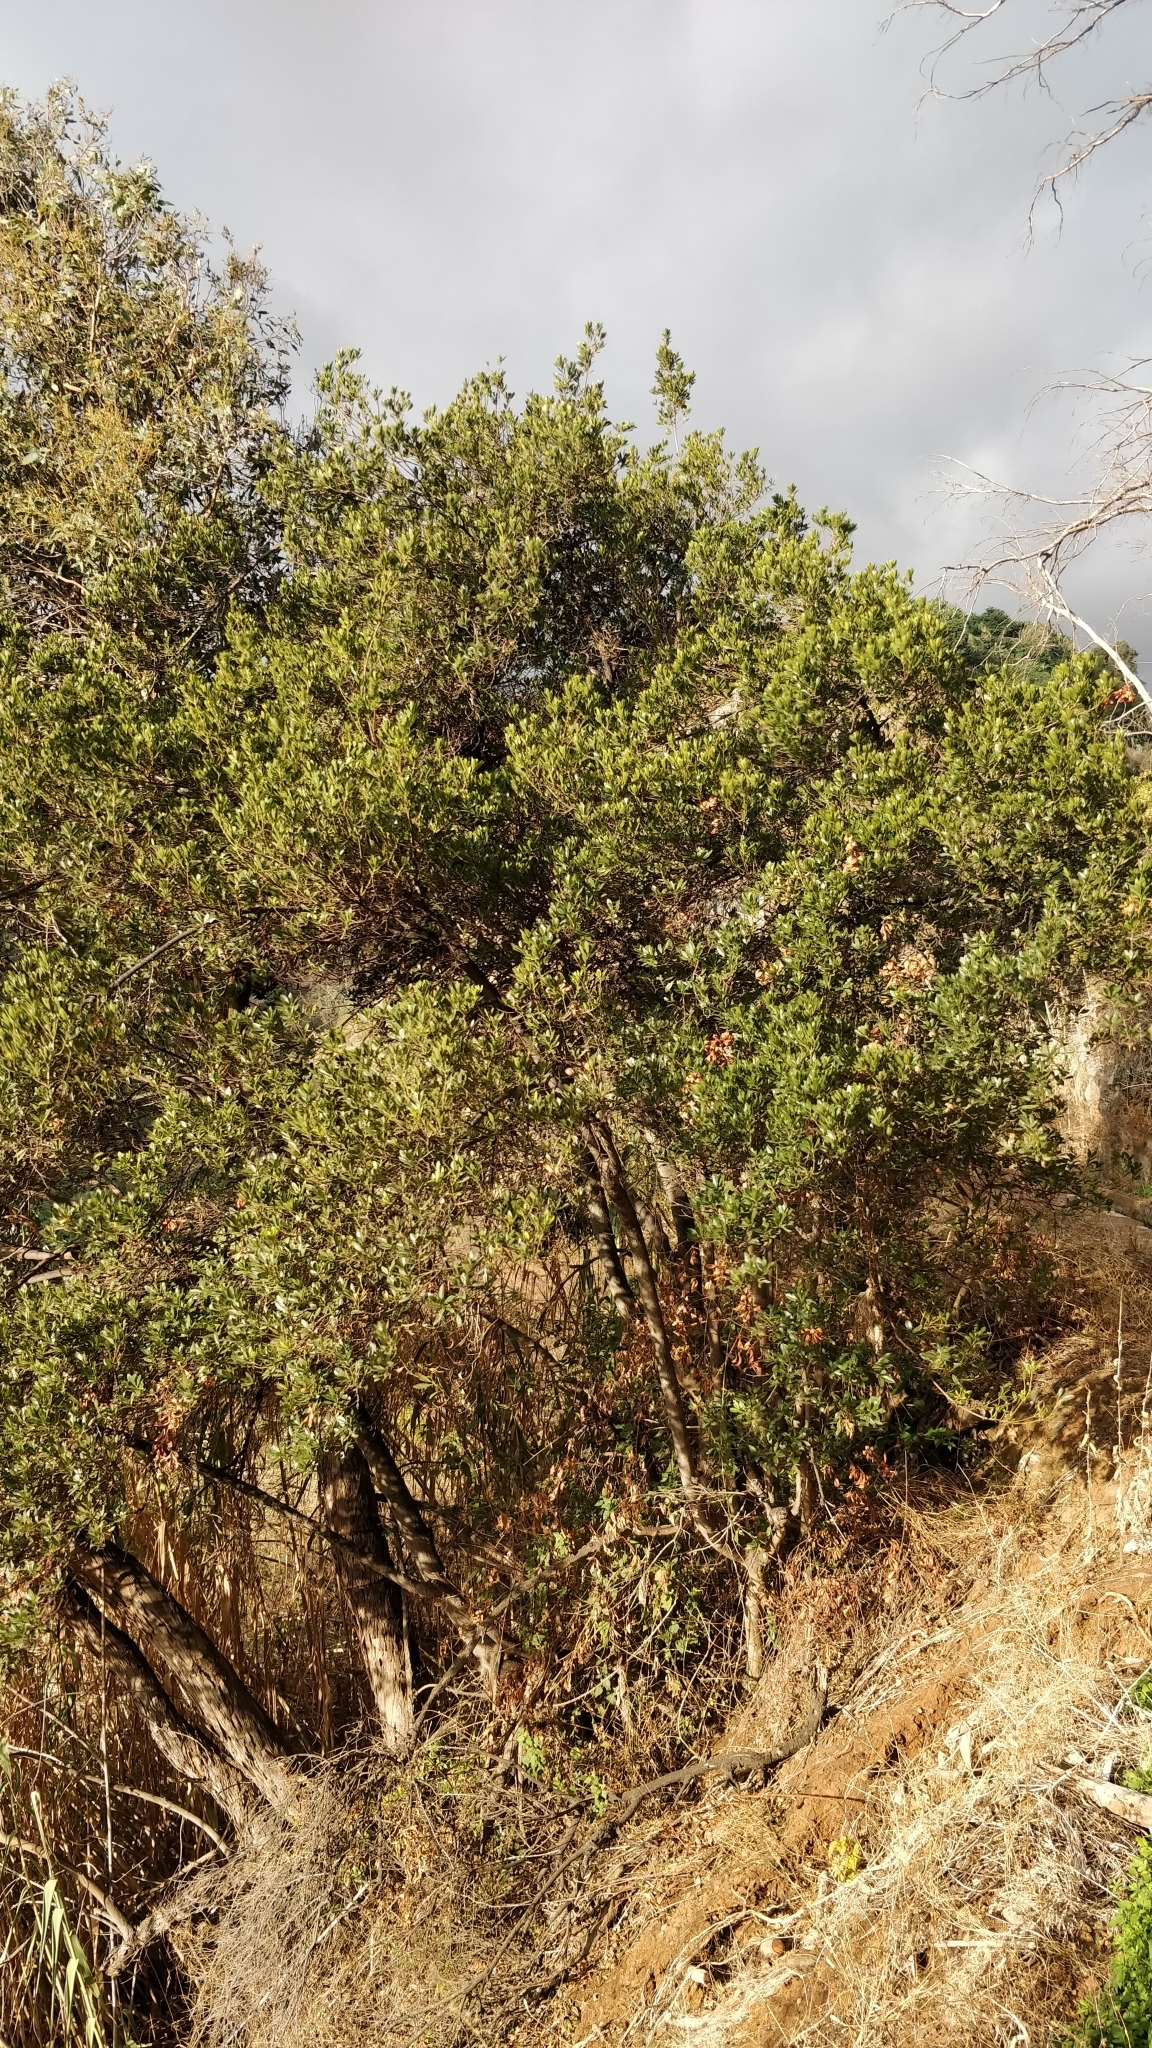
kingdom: Plantae
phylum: Tracheophyta
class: Magnoliopsida
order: Fagales
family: Myricaceae
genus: Morella
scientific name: Morella faya
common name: Firetree
